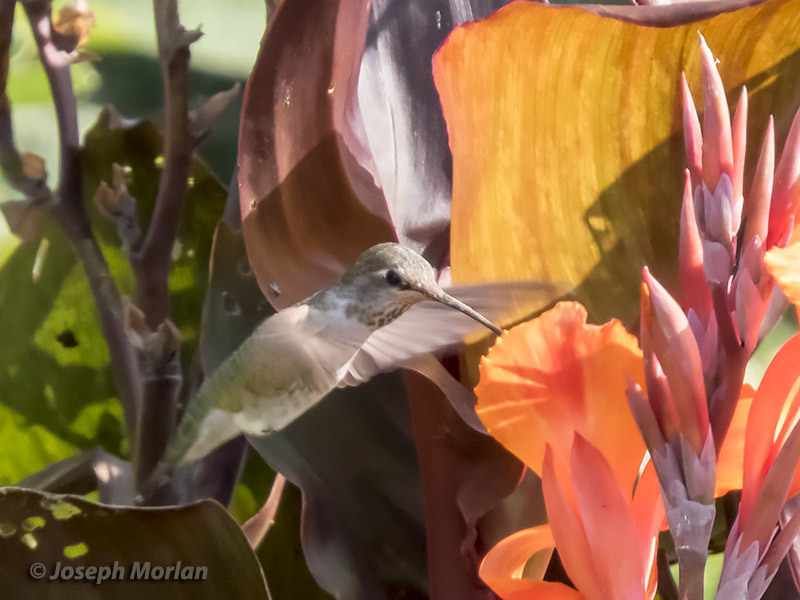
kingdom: Animalia
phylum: Chordata
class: Aves
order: Apodiformes
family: Trochilidae
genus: Calypte
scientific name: Calypte anna
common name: Anna's hummingbird
